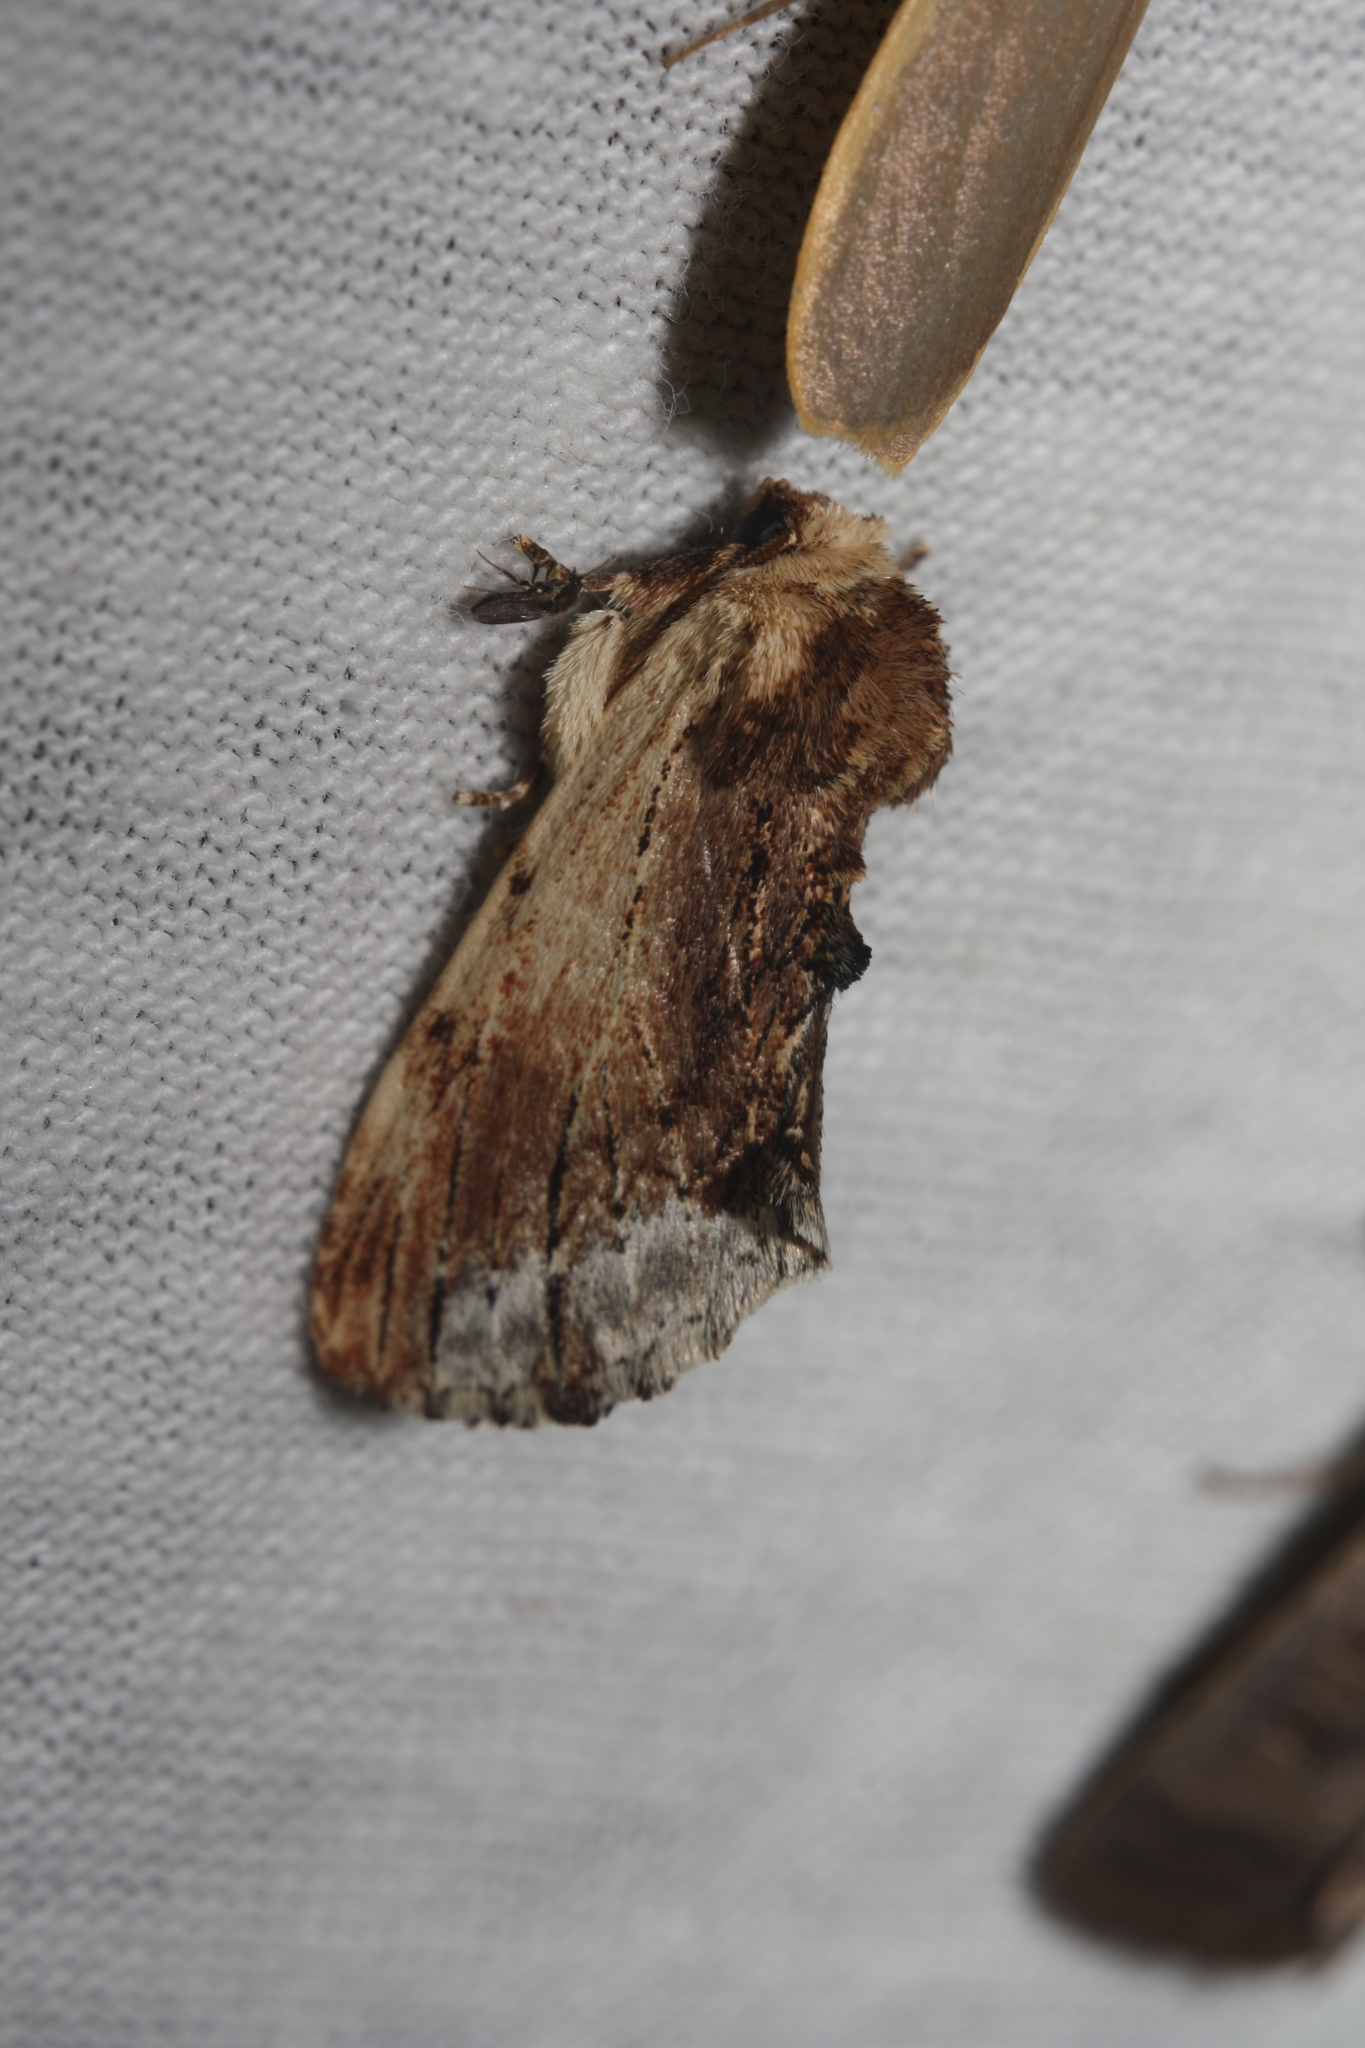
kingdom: Animalia
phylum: Arthropoda
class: Insecta
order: Lepidoptera
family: Notodontidae
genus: Ptilodon
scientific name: Ptilodon cucullina
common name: Maple prominent
